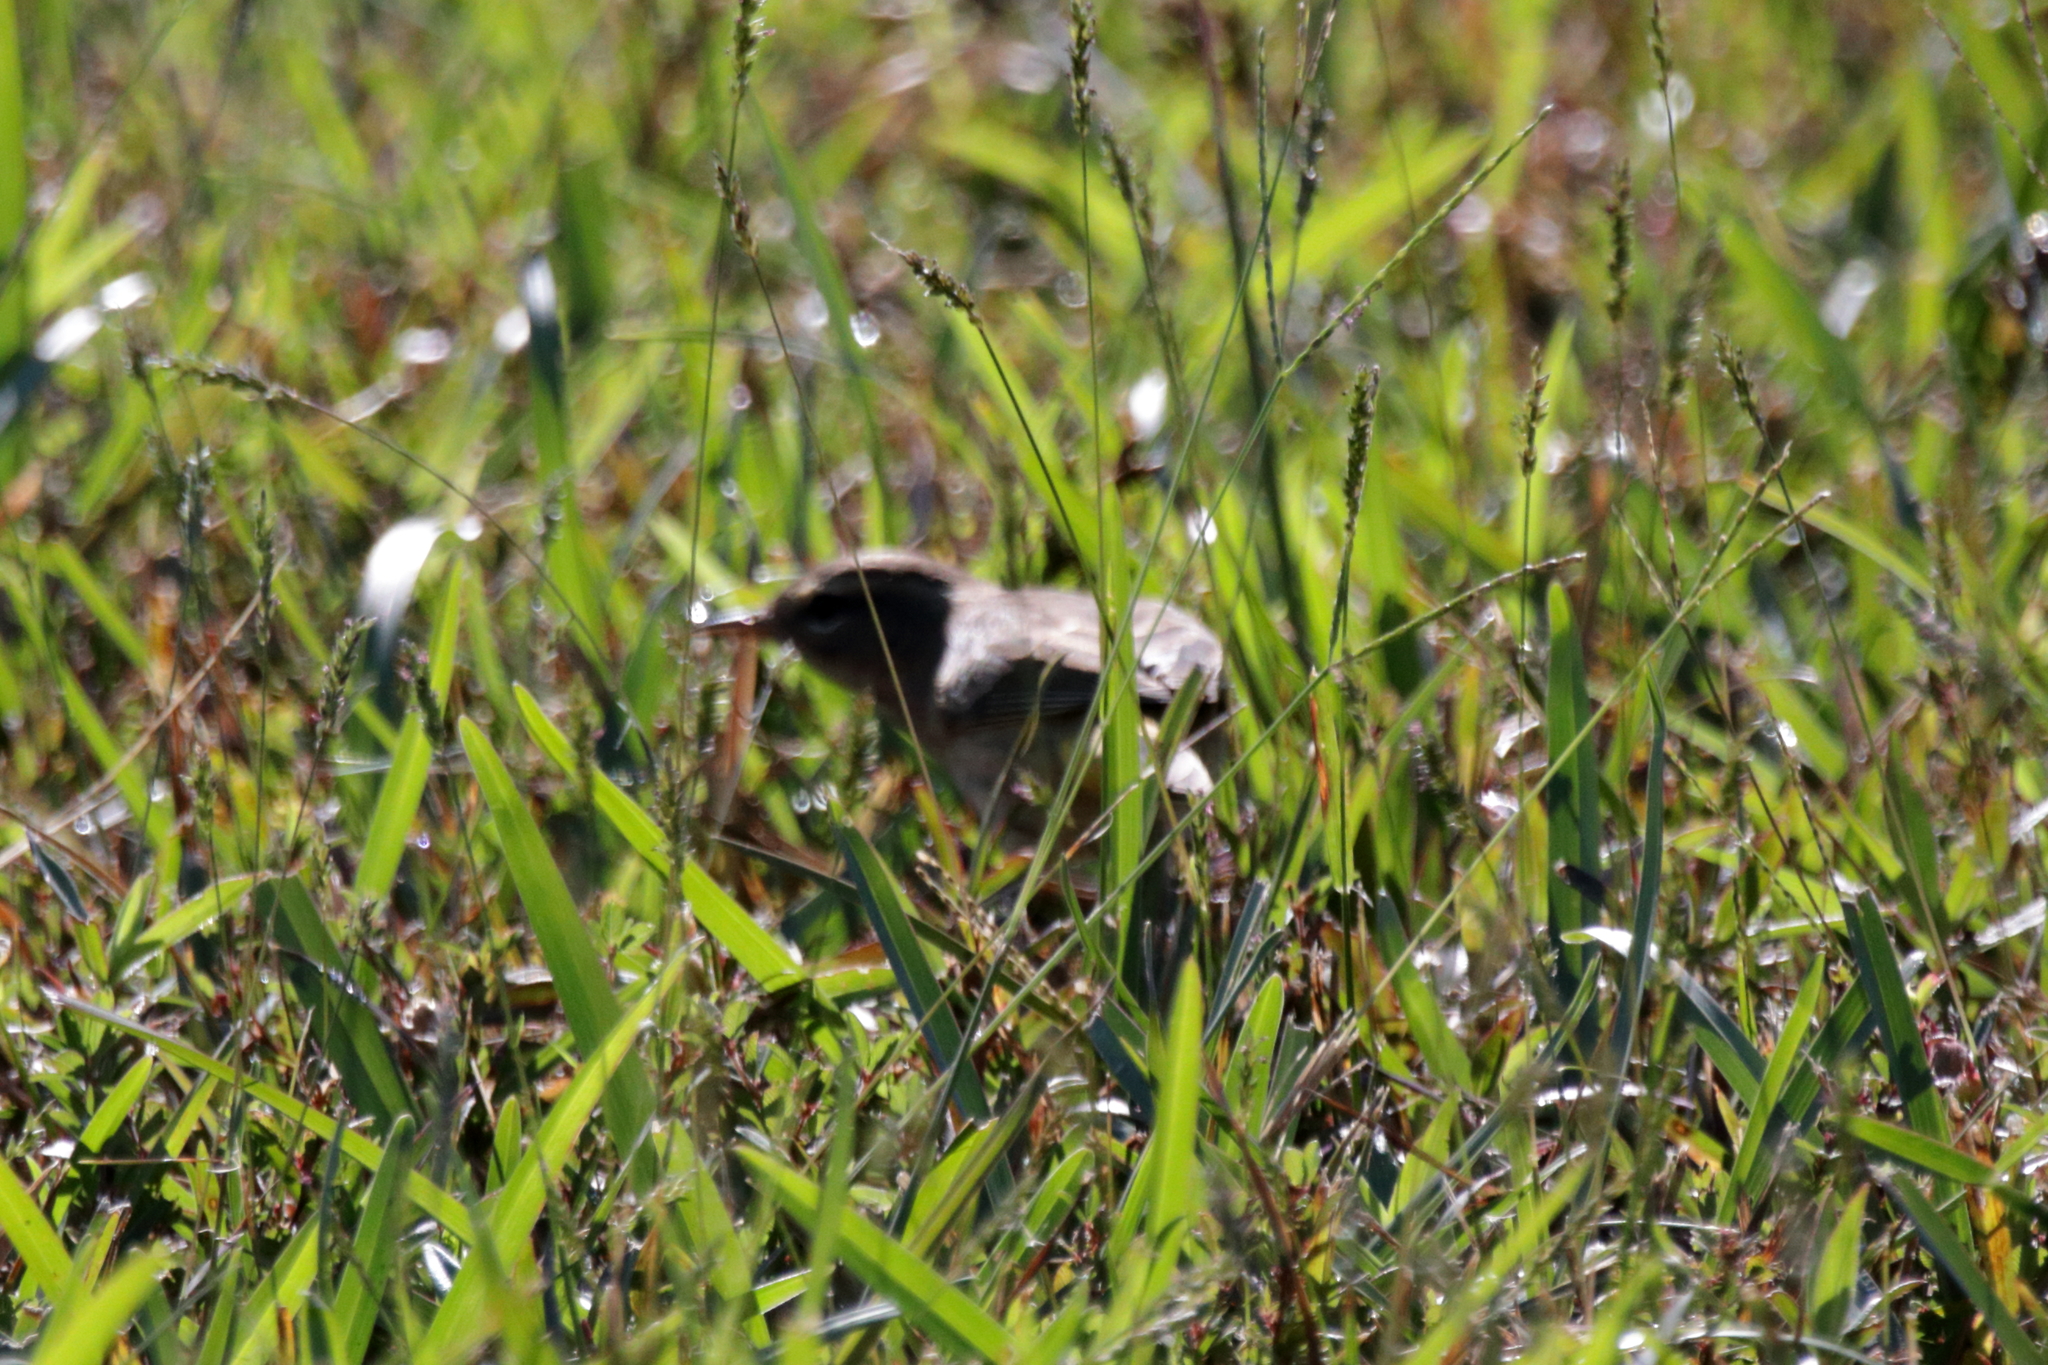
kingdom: Animalia
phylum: Chordata
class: Aves
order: Passeriformes
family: Parulidae
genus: Setophaga
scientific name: Setophaga palmarum
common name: Palm warbler
